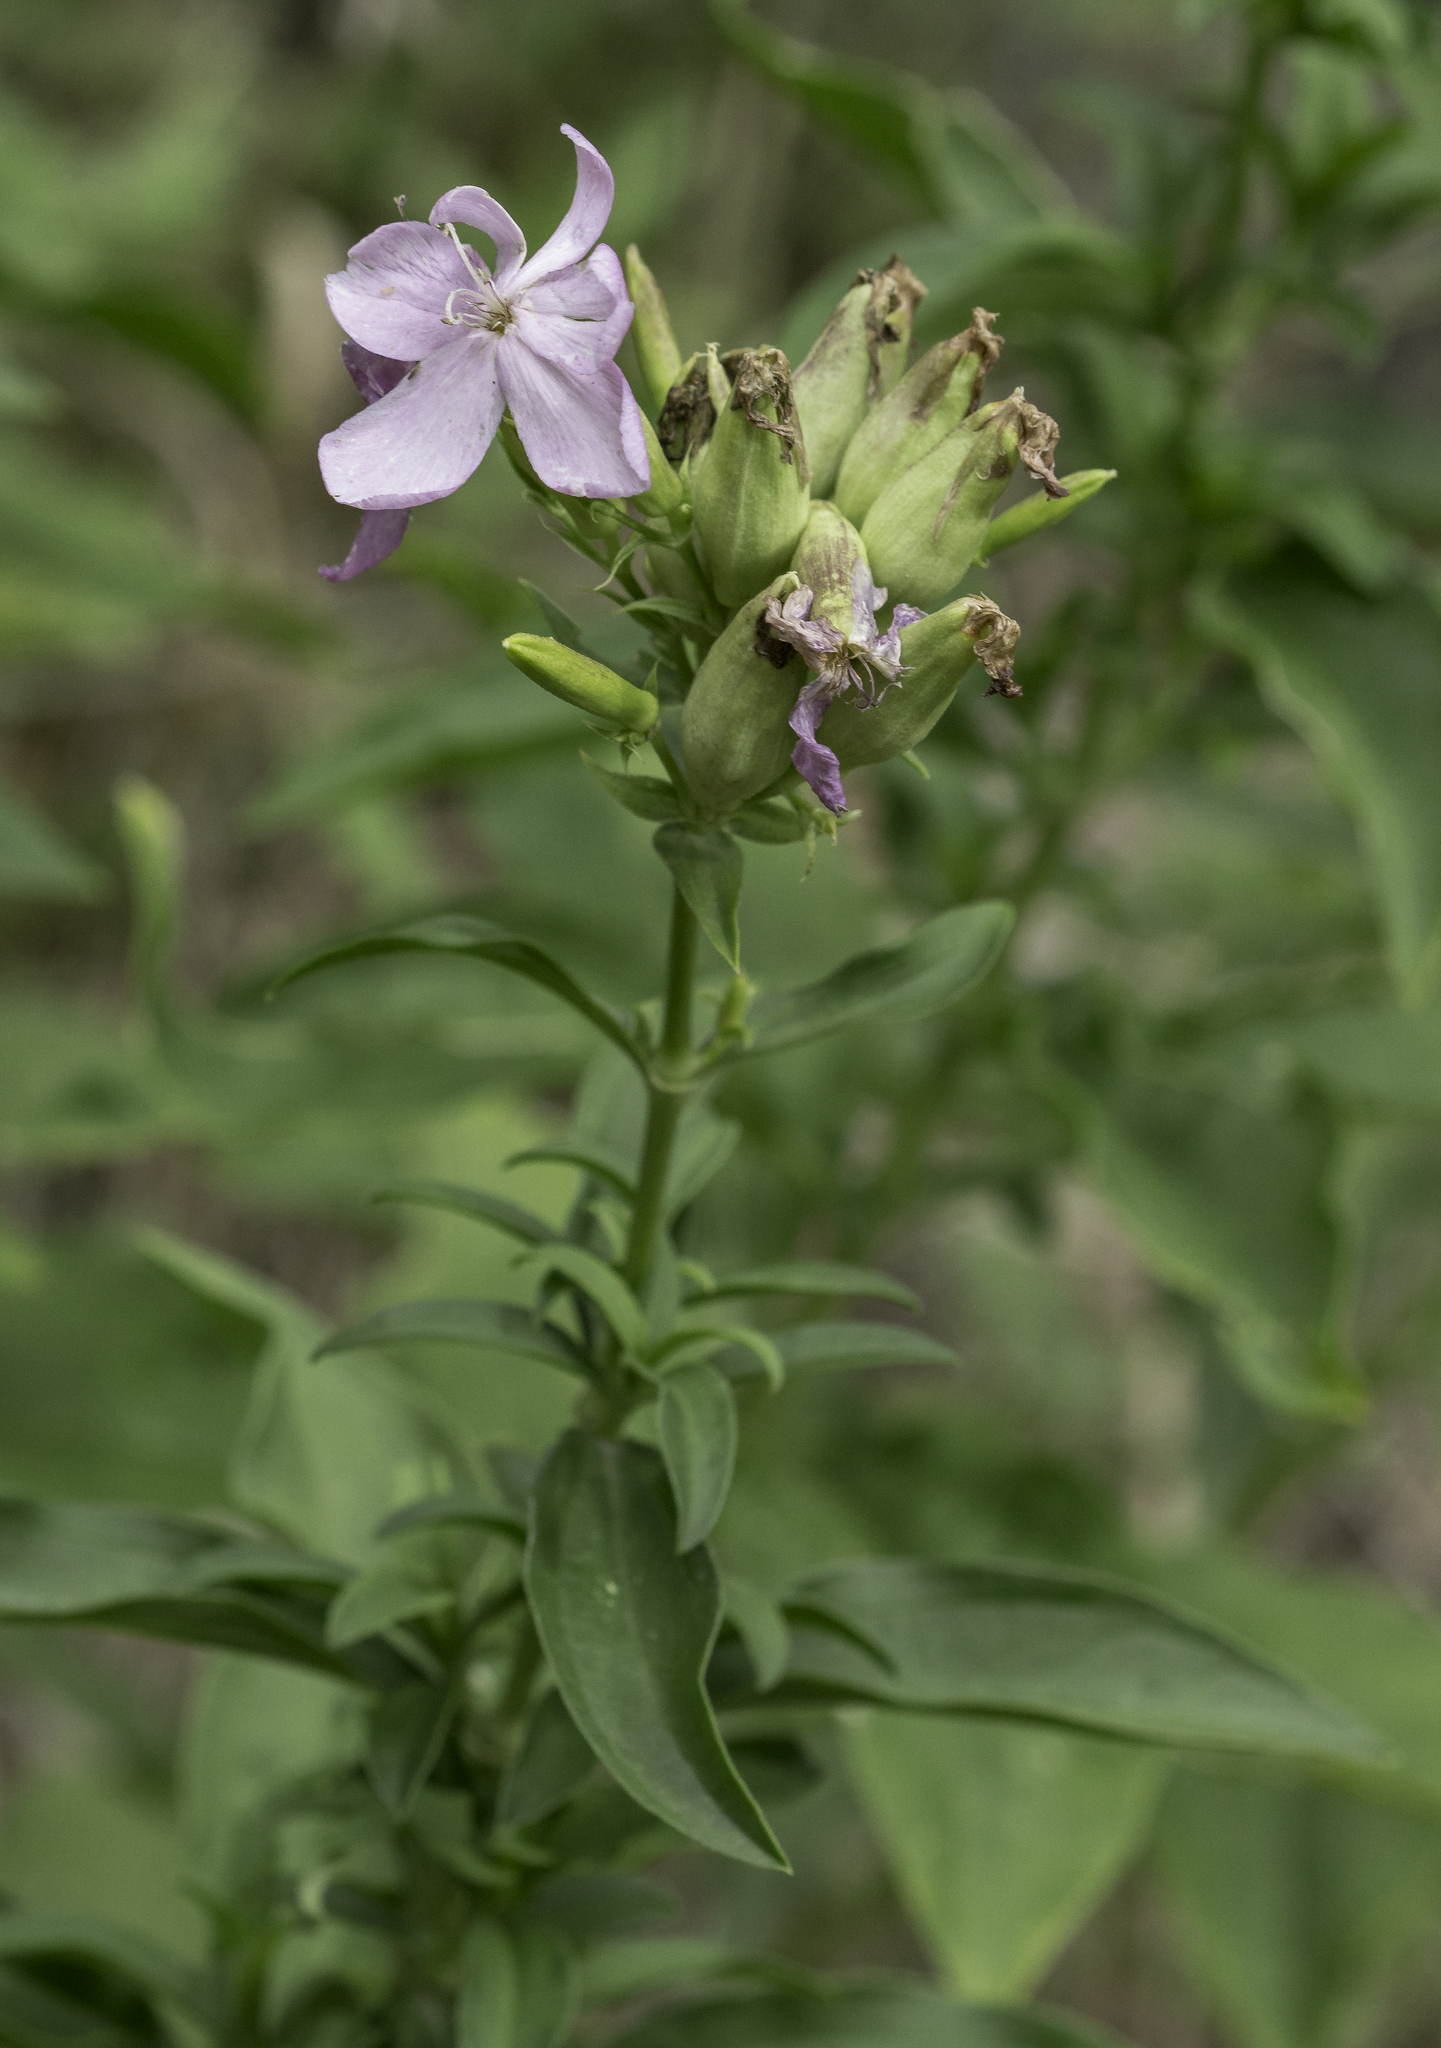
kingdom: Plantae
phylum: Tracheophyta
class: Magnoliopsida
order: Caryophyllales
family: Caryophyllaceae
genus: Saponaria
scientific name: Saponaria officinalis
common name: Soapwort
